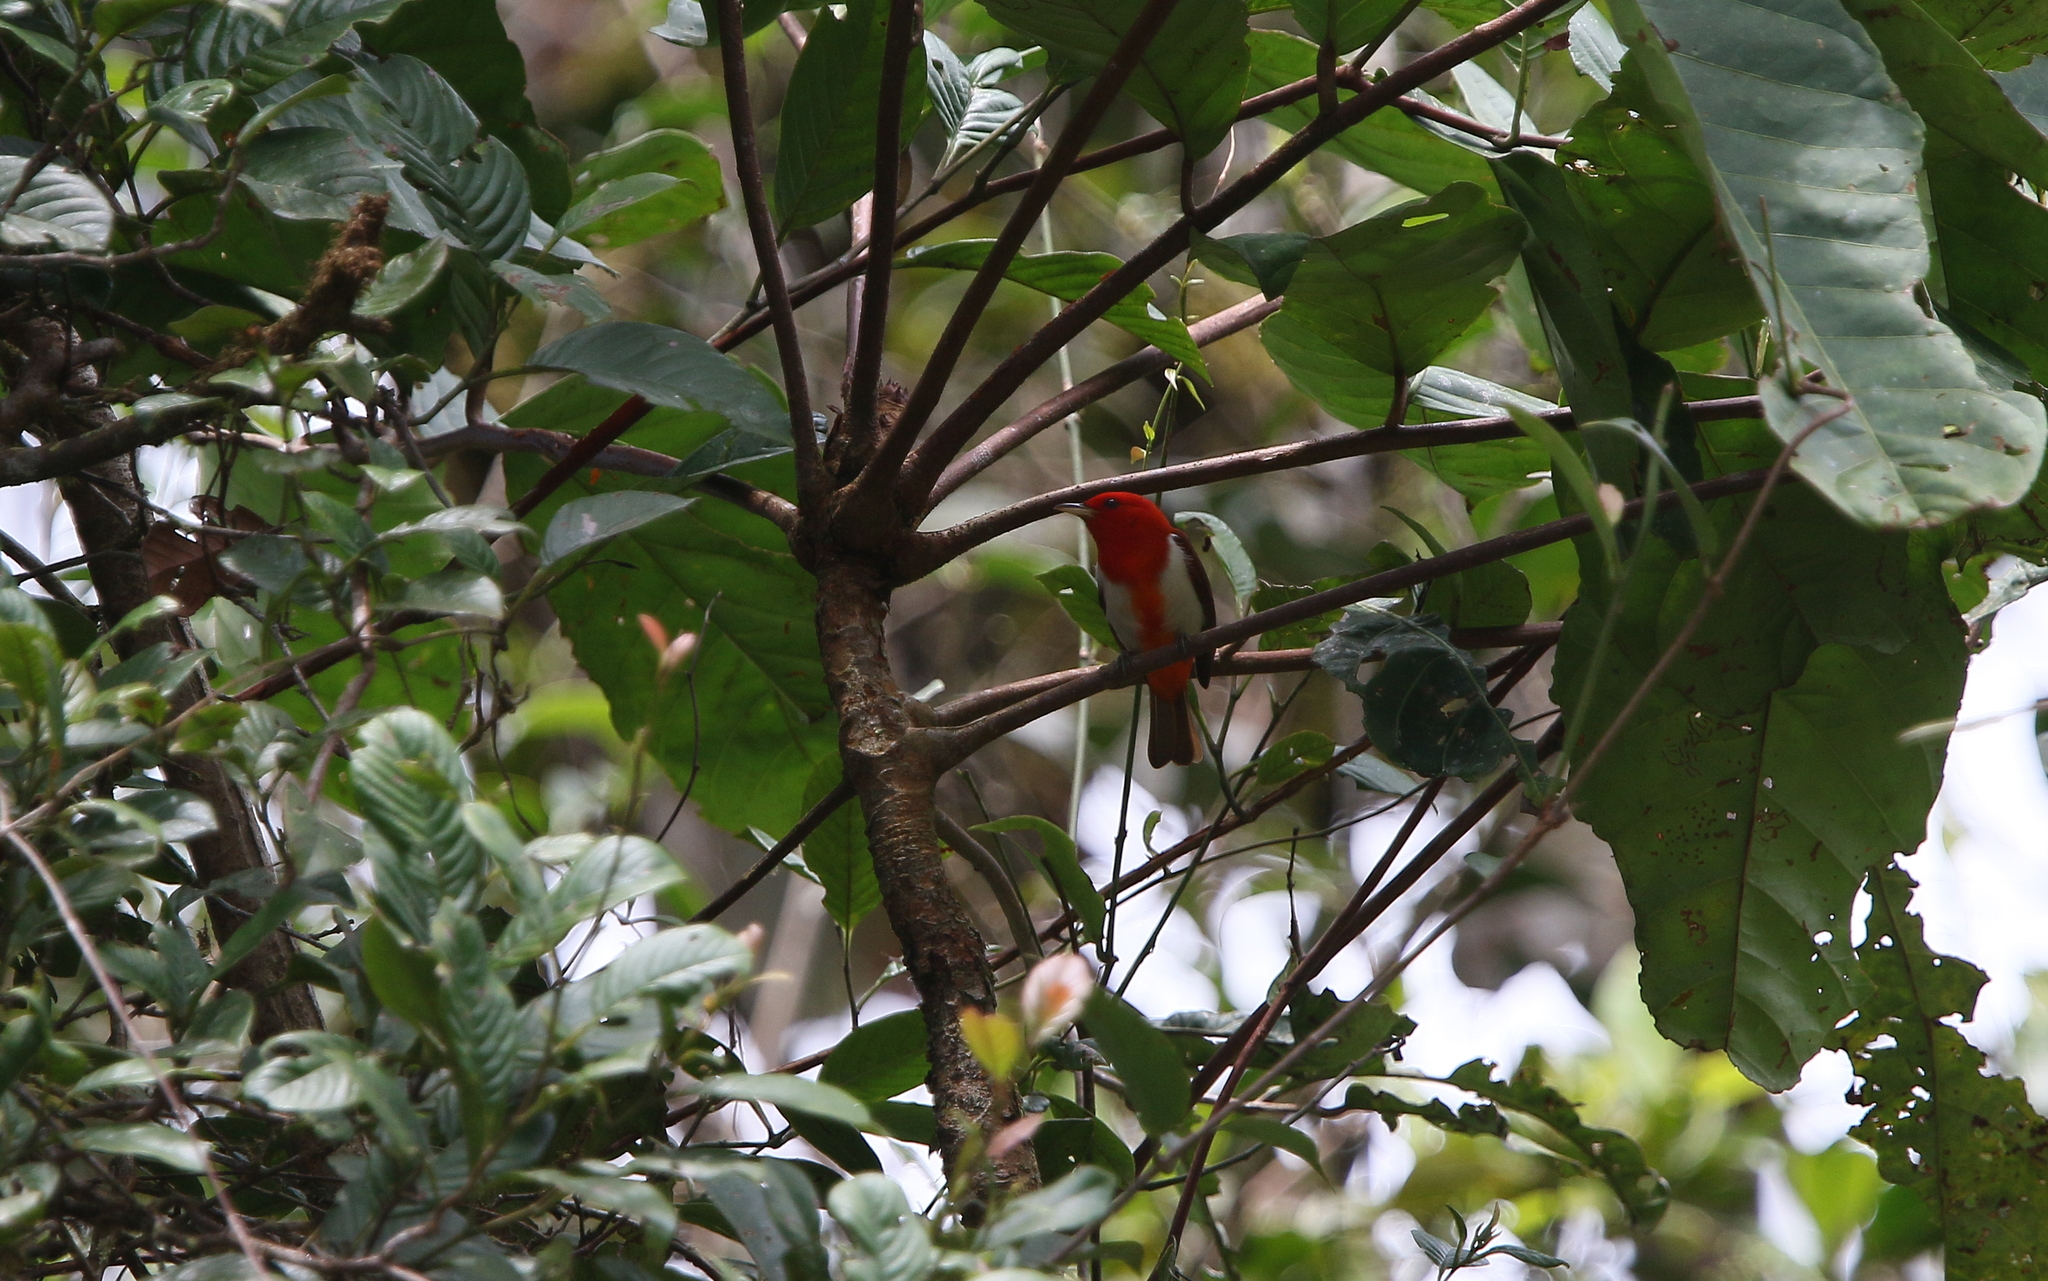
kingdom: Animalia
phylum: Chordata
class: Aves
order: Passeriformes
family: Thraupidae
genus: Chrysothlypis
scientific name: Chrysothlypis salmoni
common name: Scarlet-and-white tanager
